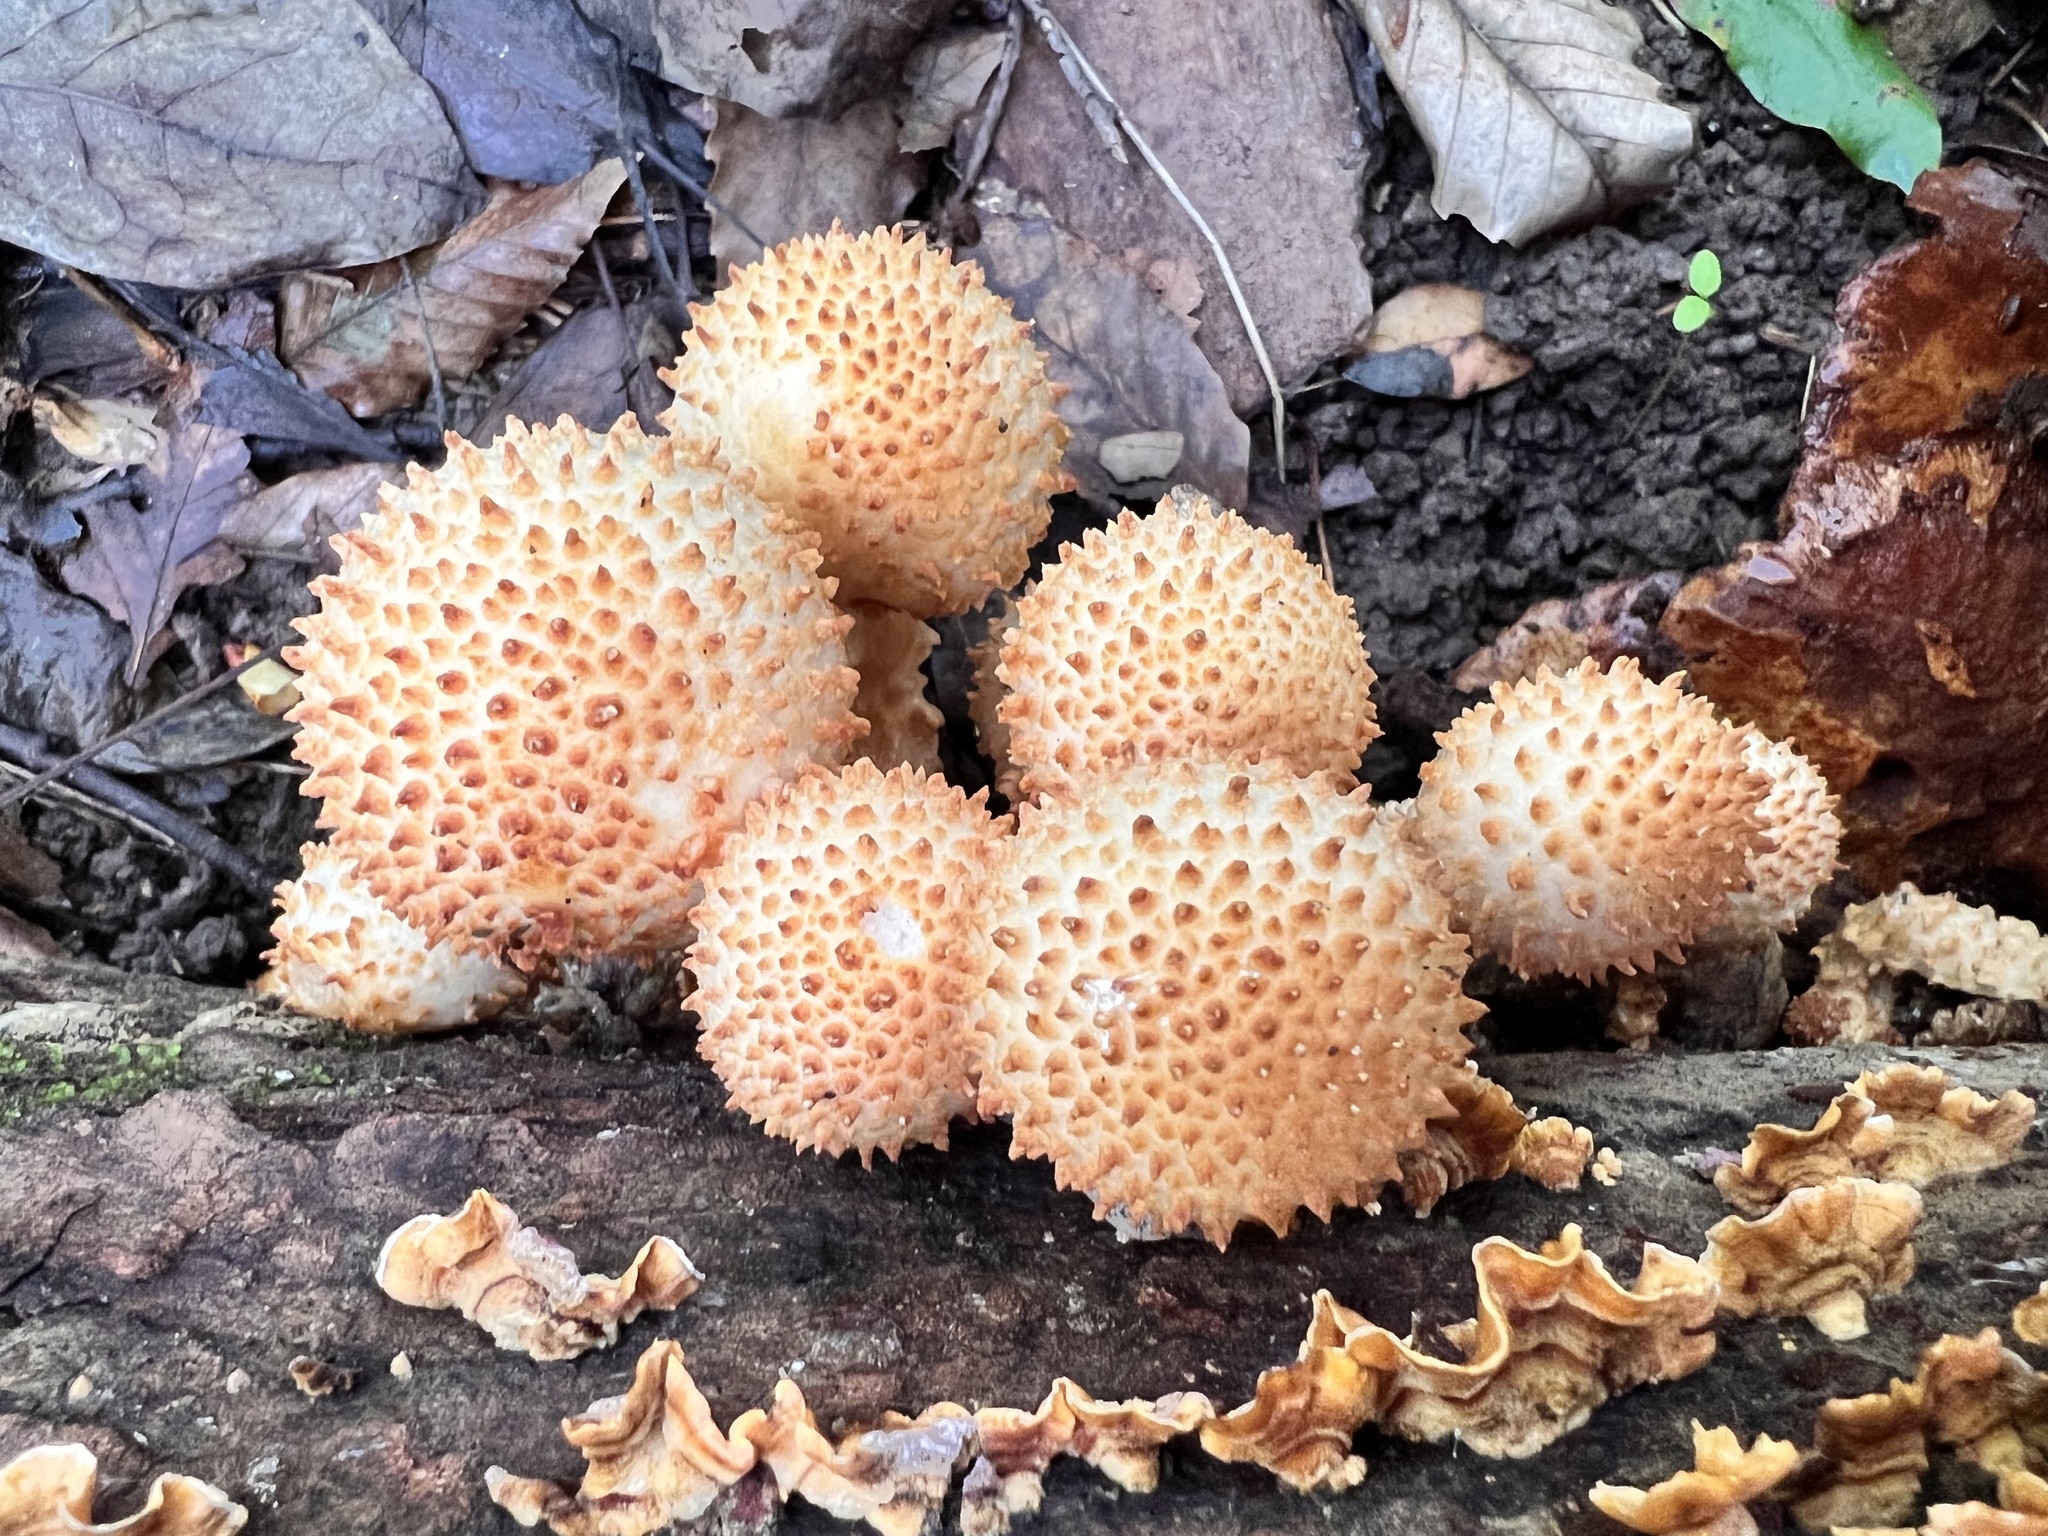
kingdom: Fungi
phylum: Basidiomycota
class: Agaricomycetes
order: Agaricales
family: Strophariaceae
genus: Pholiota
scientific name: Pholiota squarrosoides
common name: Sharp-scaly pholiota
